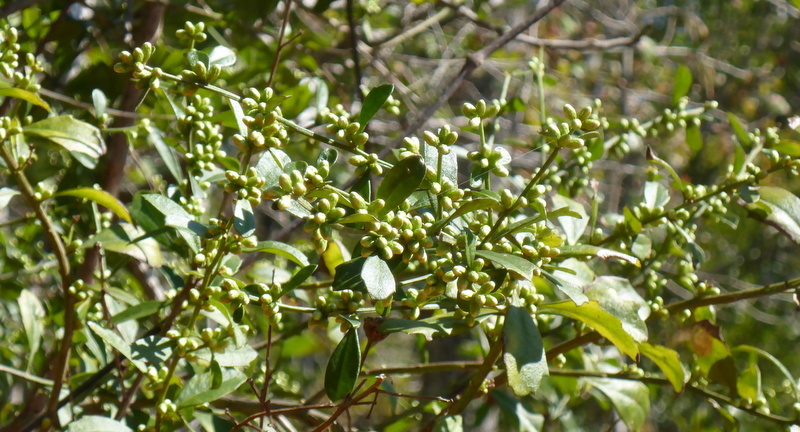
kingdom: Plantae
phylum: Tracheophyta
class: Magnoliopsida
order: Asterales
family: Asteraceae
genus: Baccharis
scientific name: Baccharis glomeruliflora
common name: Silverling groundsel bush
